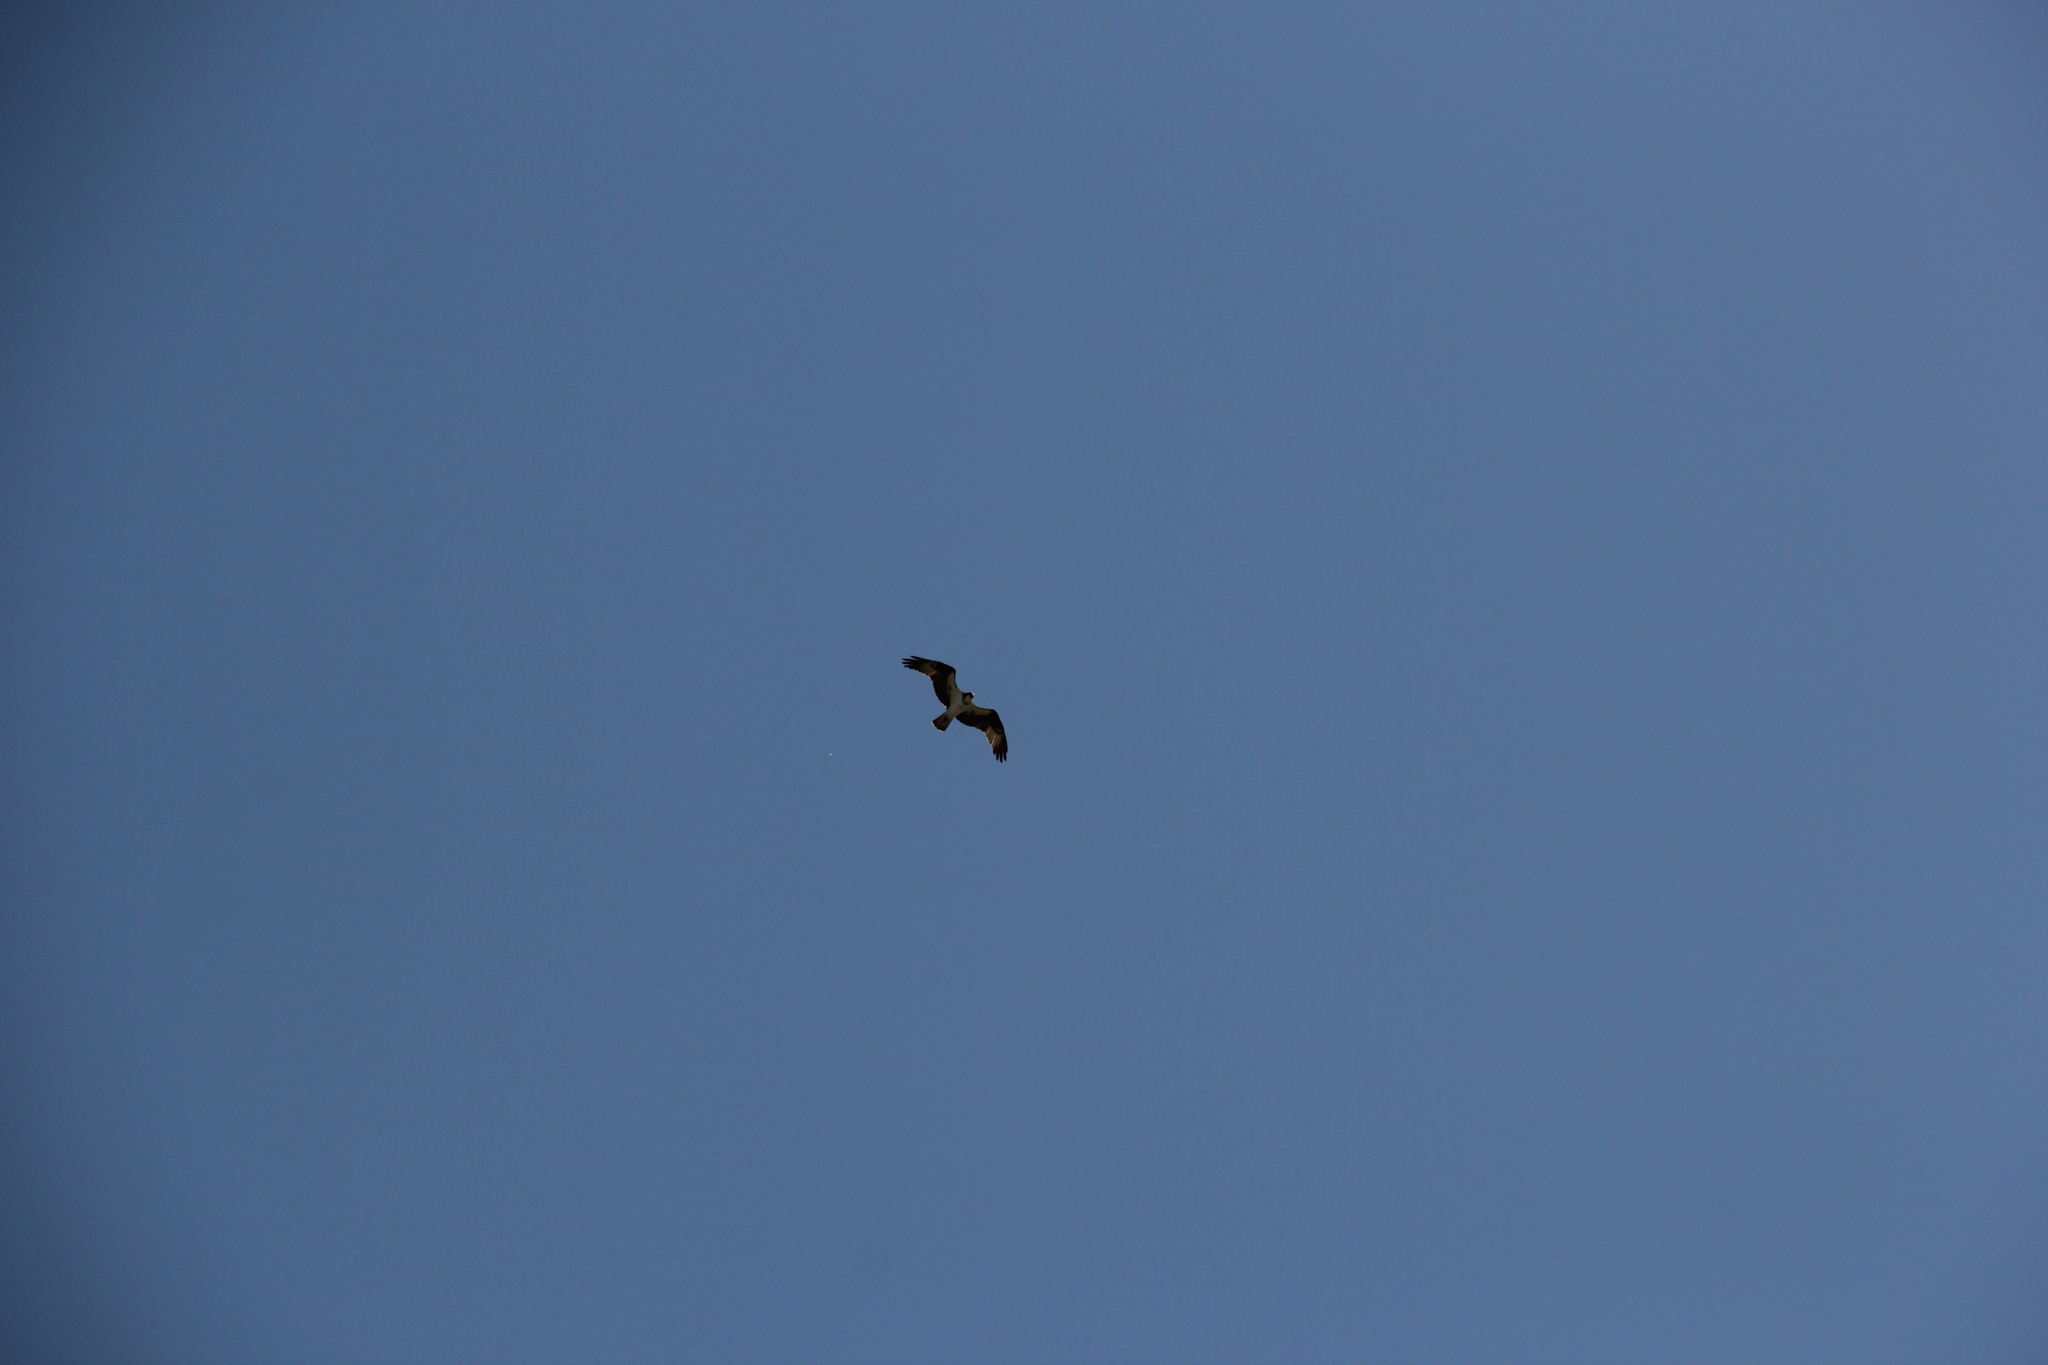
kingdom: Animalia
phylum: Chordata
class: Aves
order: Accipitriformes
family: Pandionidae
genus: Pandion
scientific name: Pandion haliaetus
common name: Osprey
